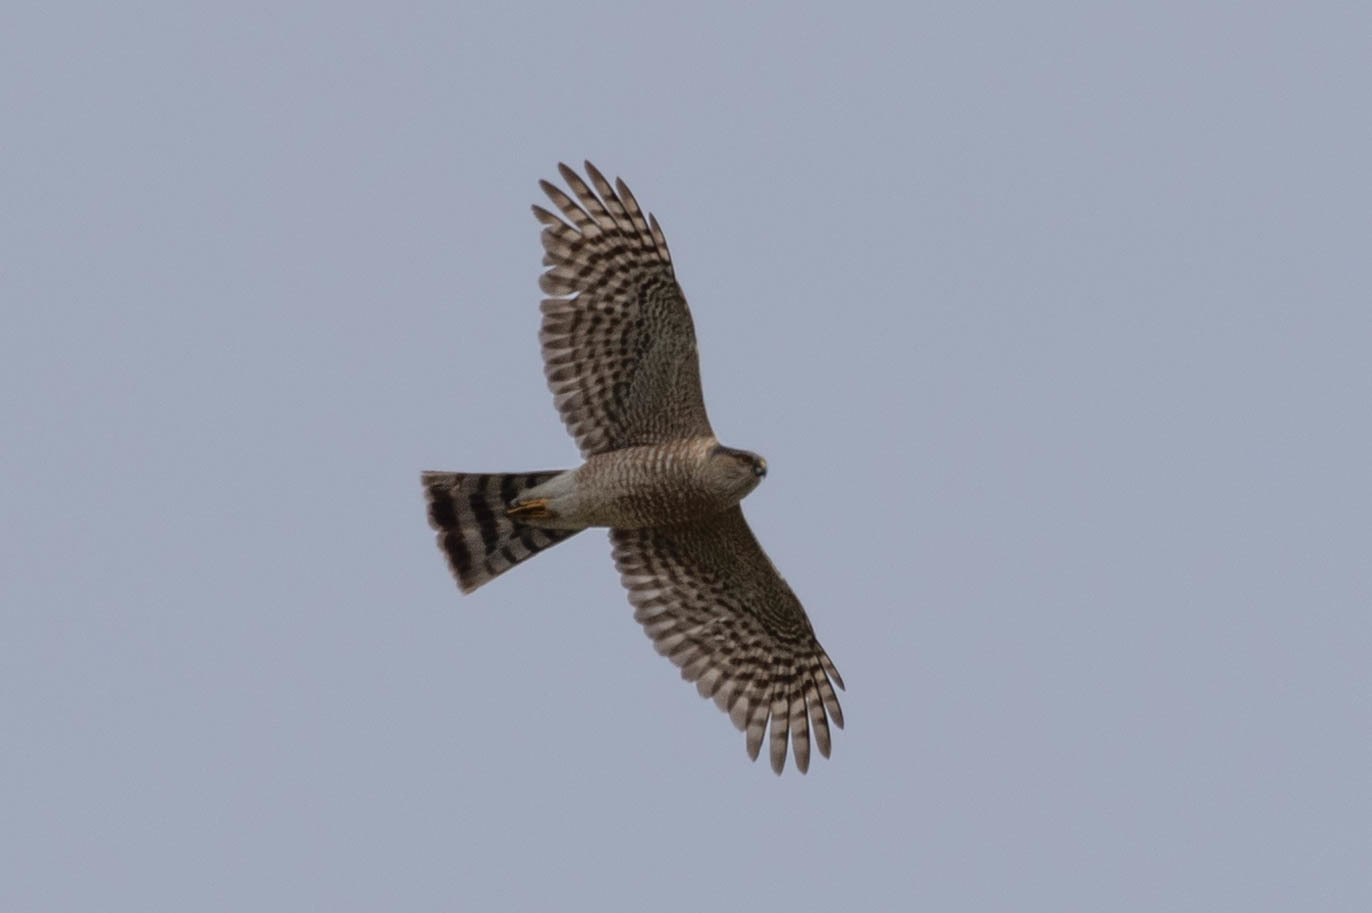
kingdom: Animalia
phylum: Chordata
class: Aves
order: Accipitriformes
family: Accipitridae
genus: Accipiter
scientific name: Accipiter striatus
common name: Sharp-shinned hawk
